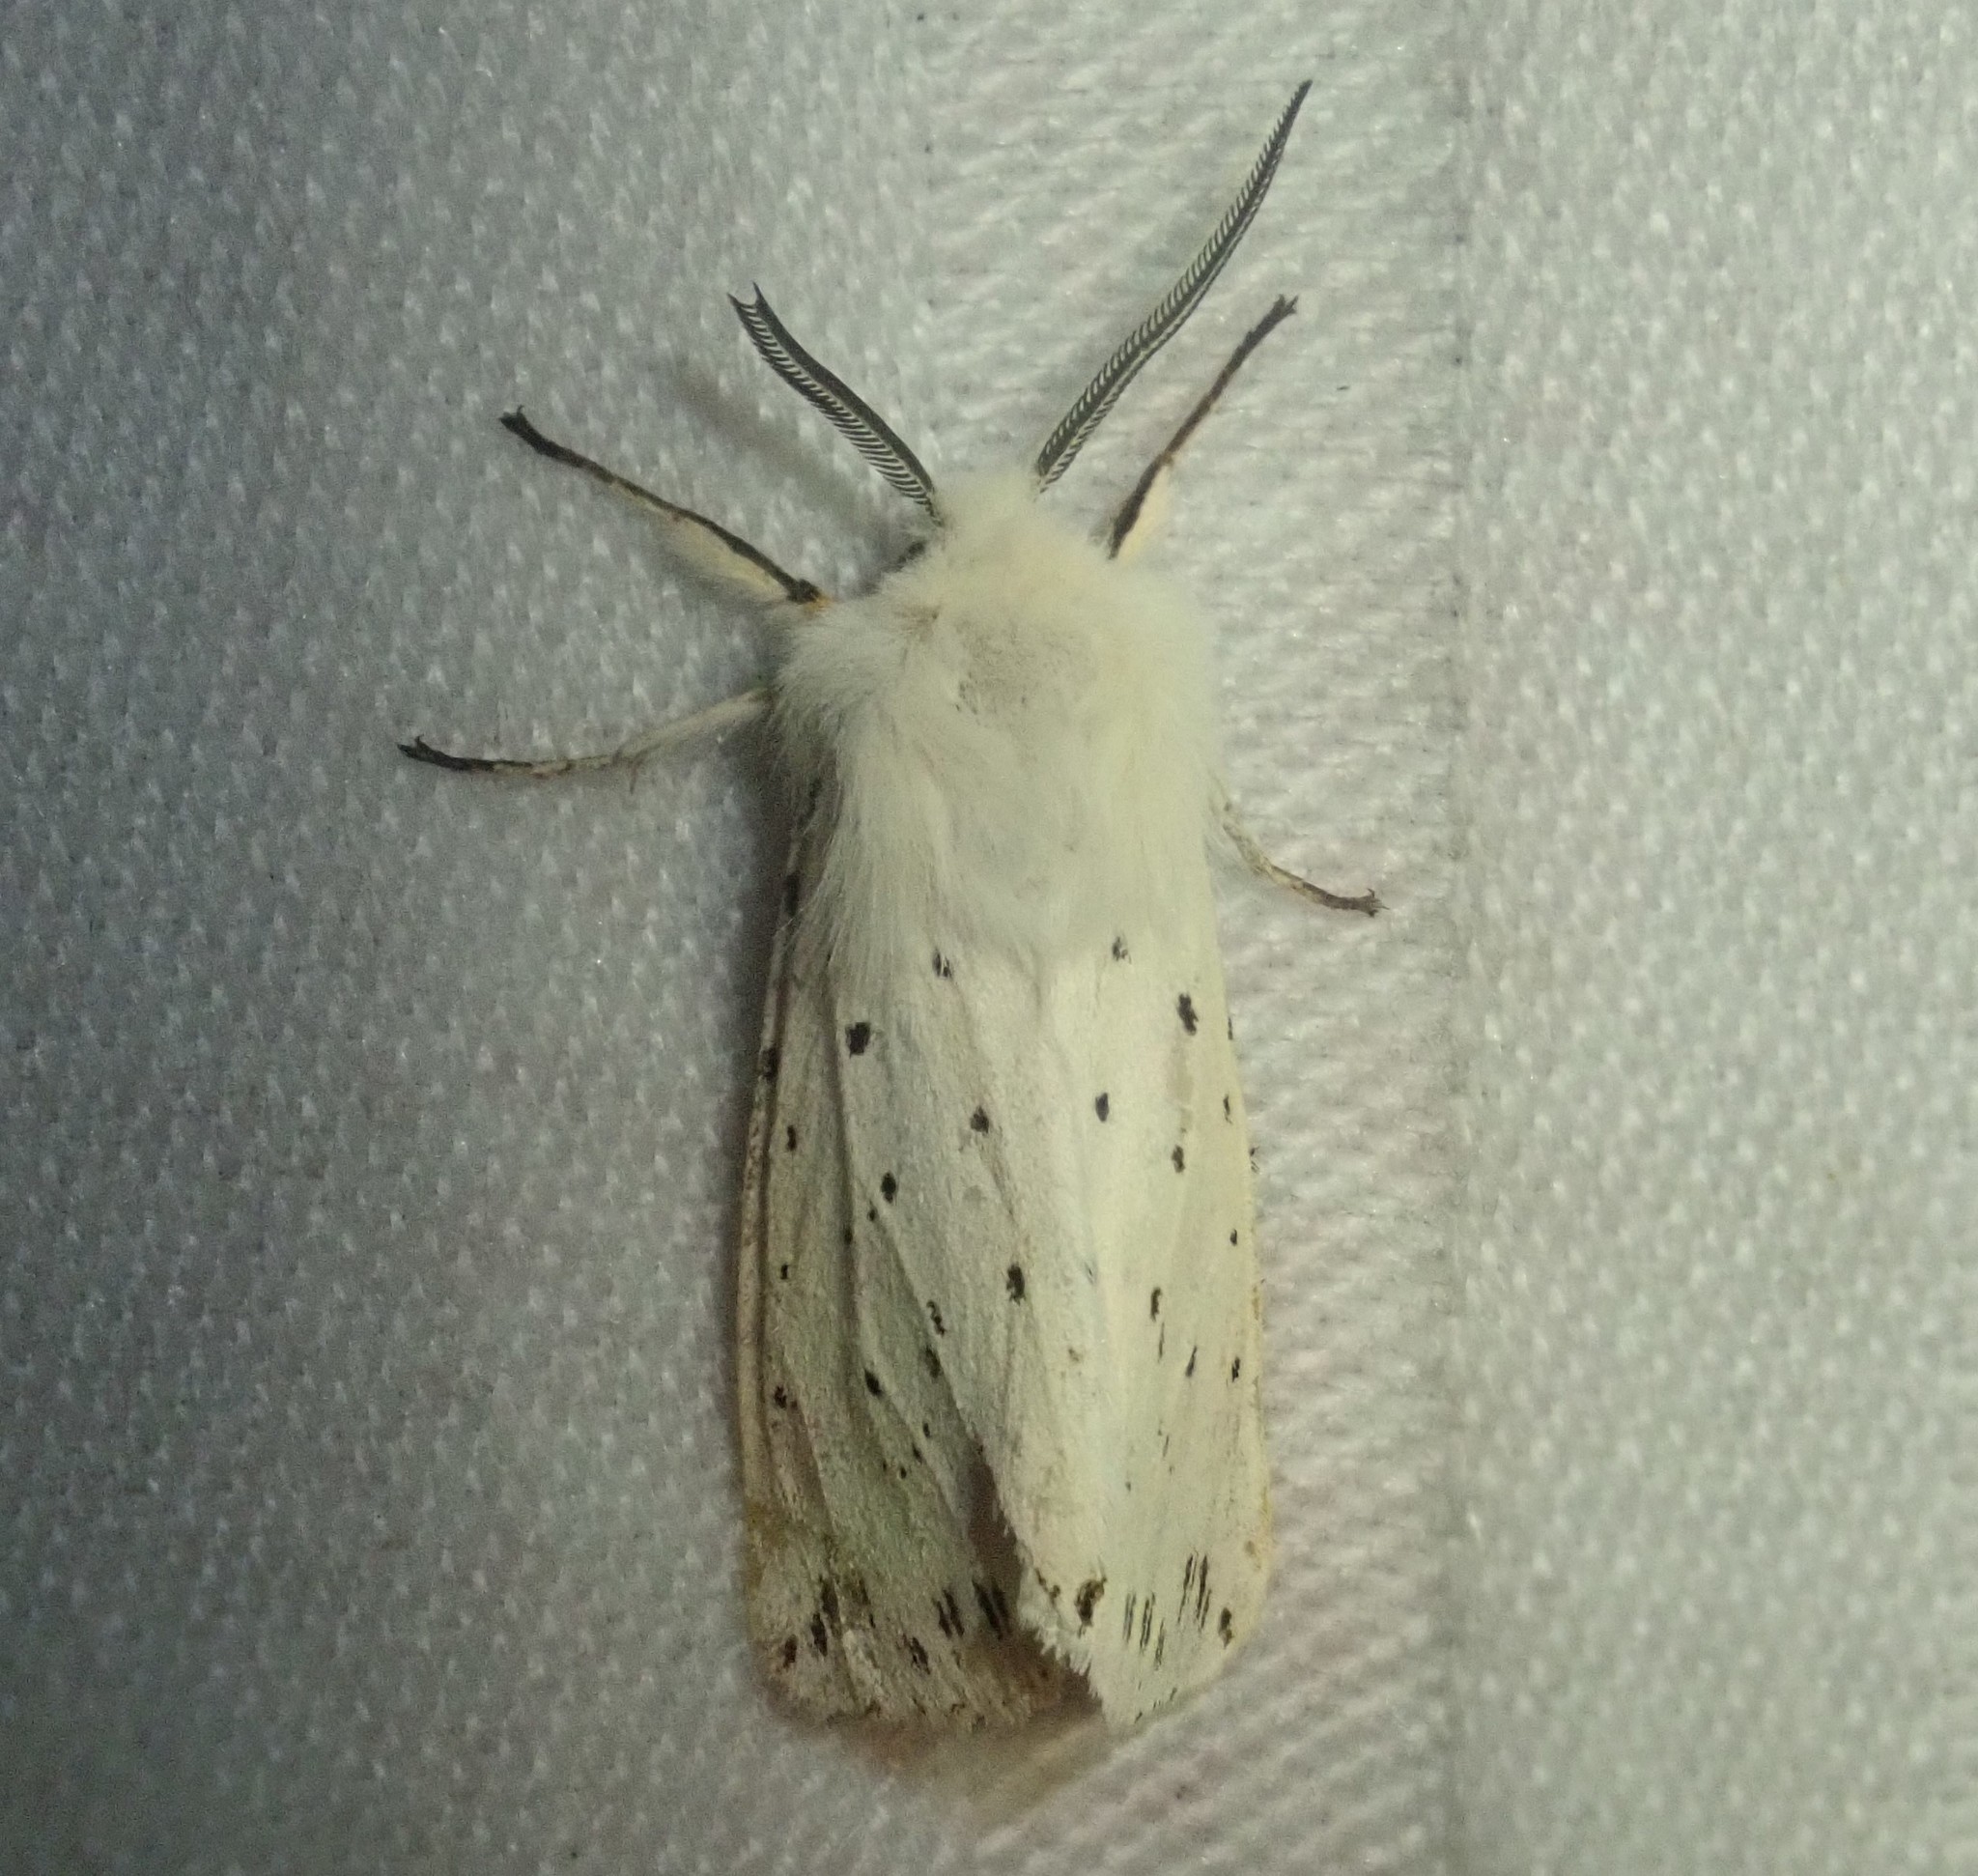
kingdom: Animalia
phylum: Arthropoda
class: Insecta
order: Lepidoptera
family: Erebidae
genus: Spilosoma
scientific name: Spilosoma lubricipeda
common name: White ermine
